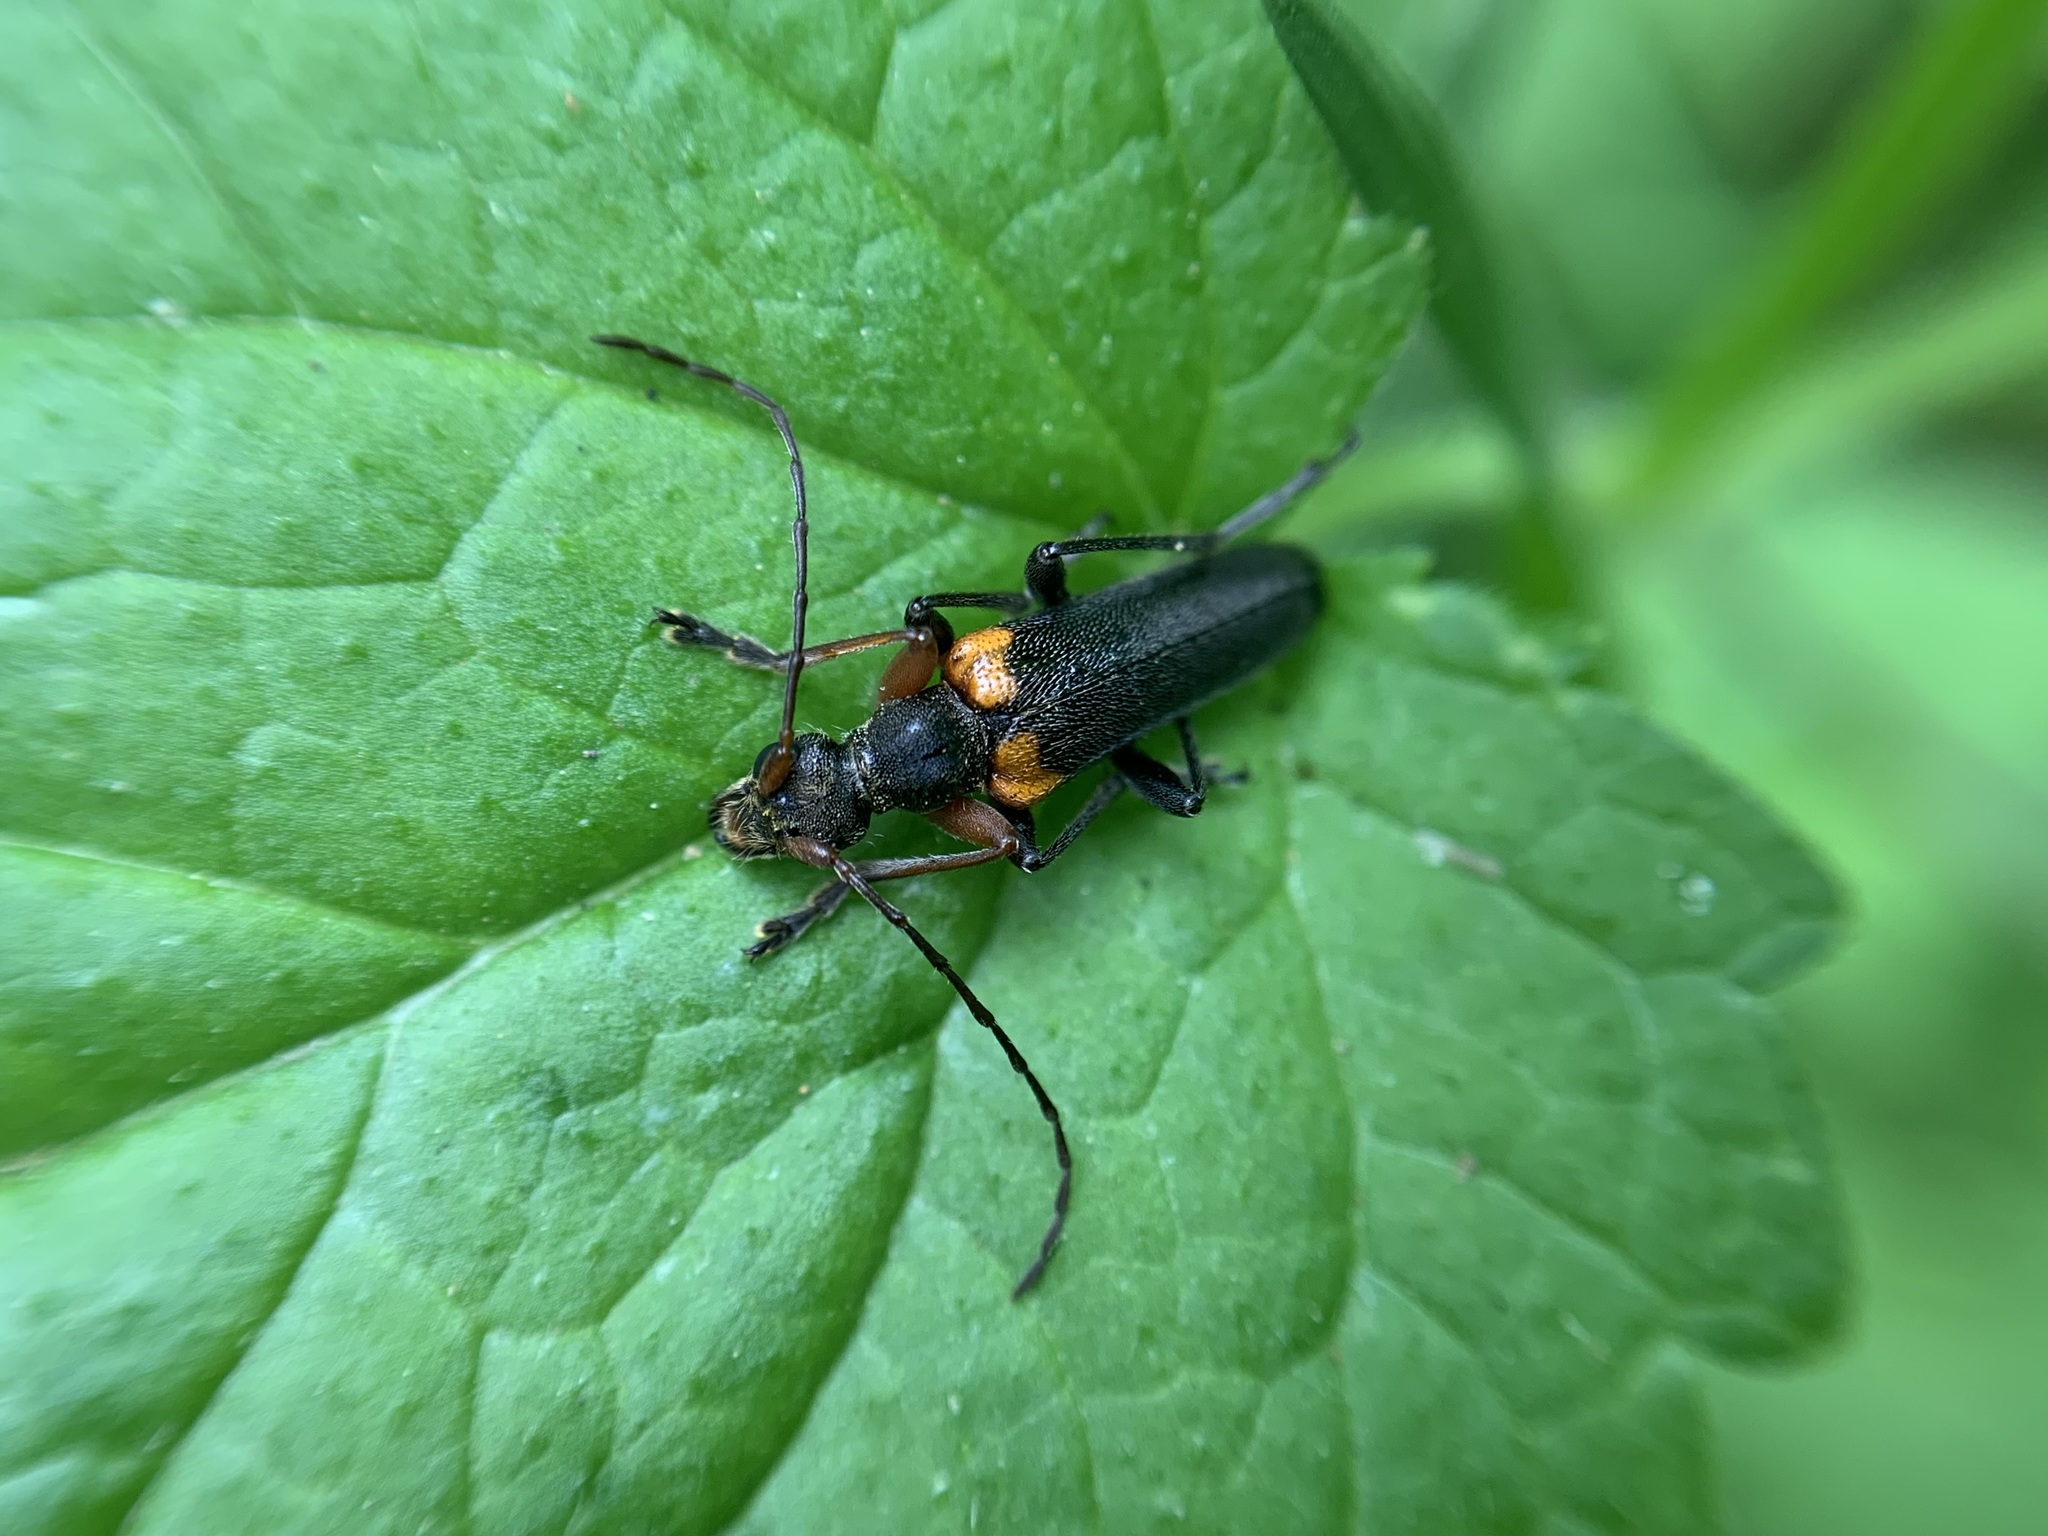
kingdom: Animalia
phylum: Arthropoda
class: Insecta
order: Coleoptera
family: Cerambycidae
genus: Cortodera
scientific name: Cortodera cubitalis
